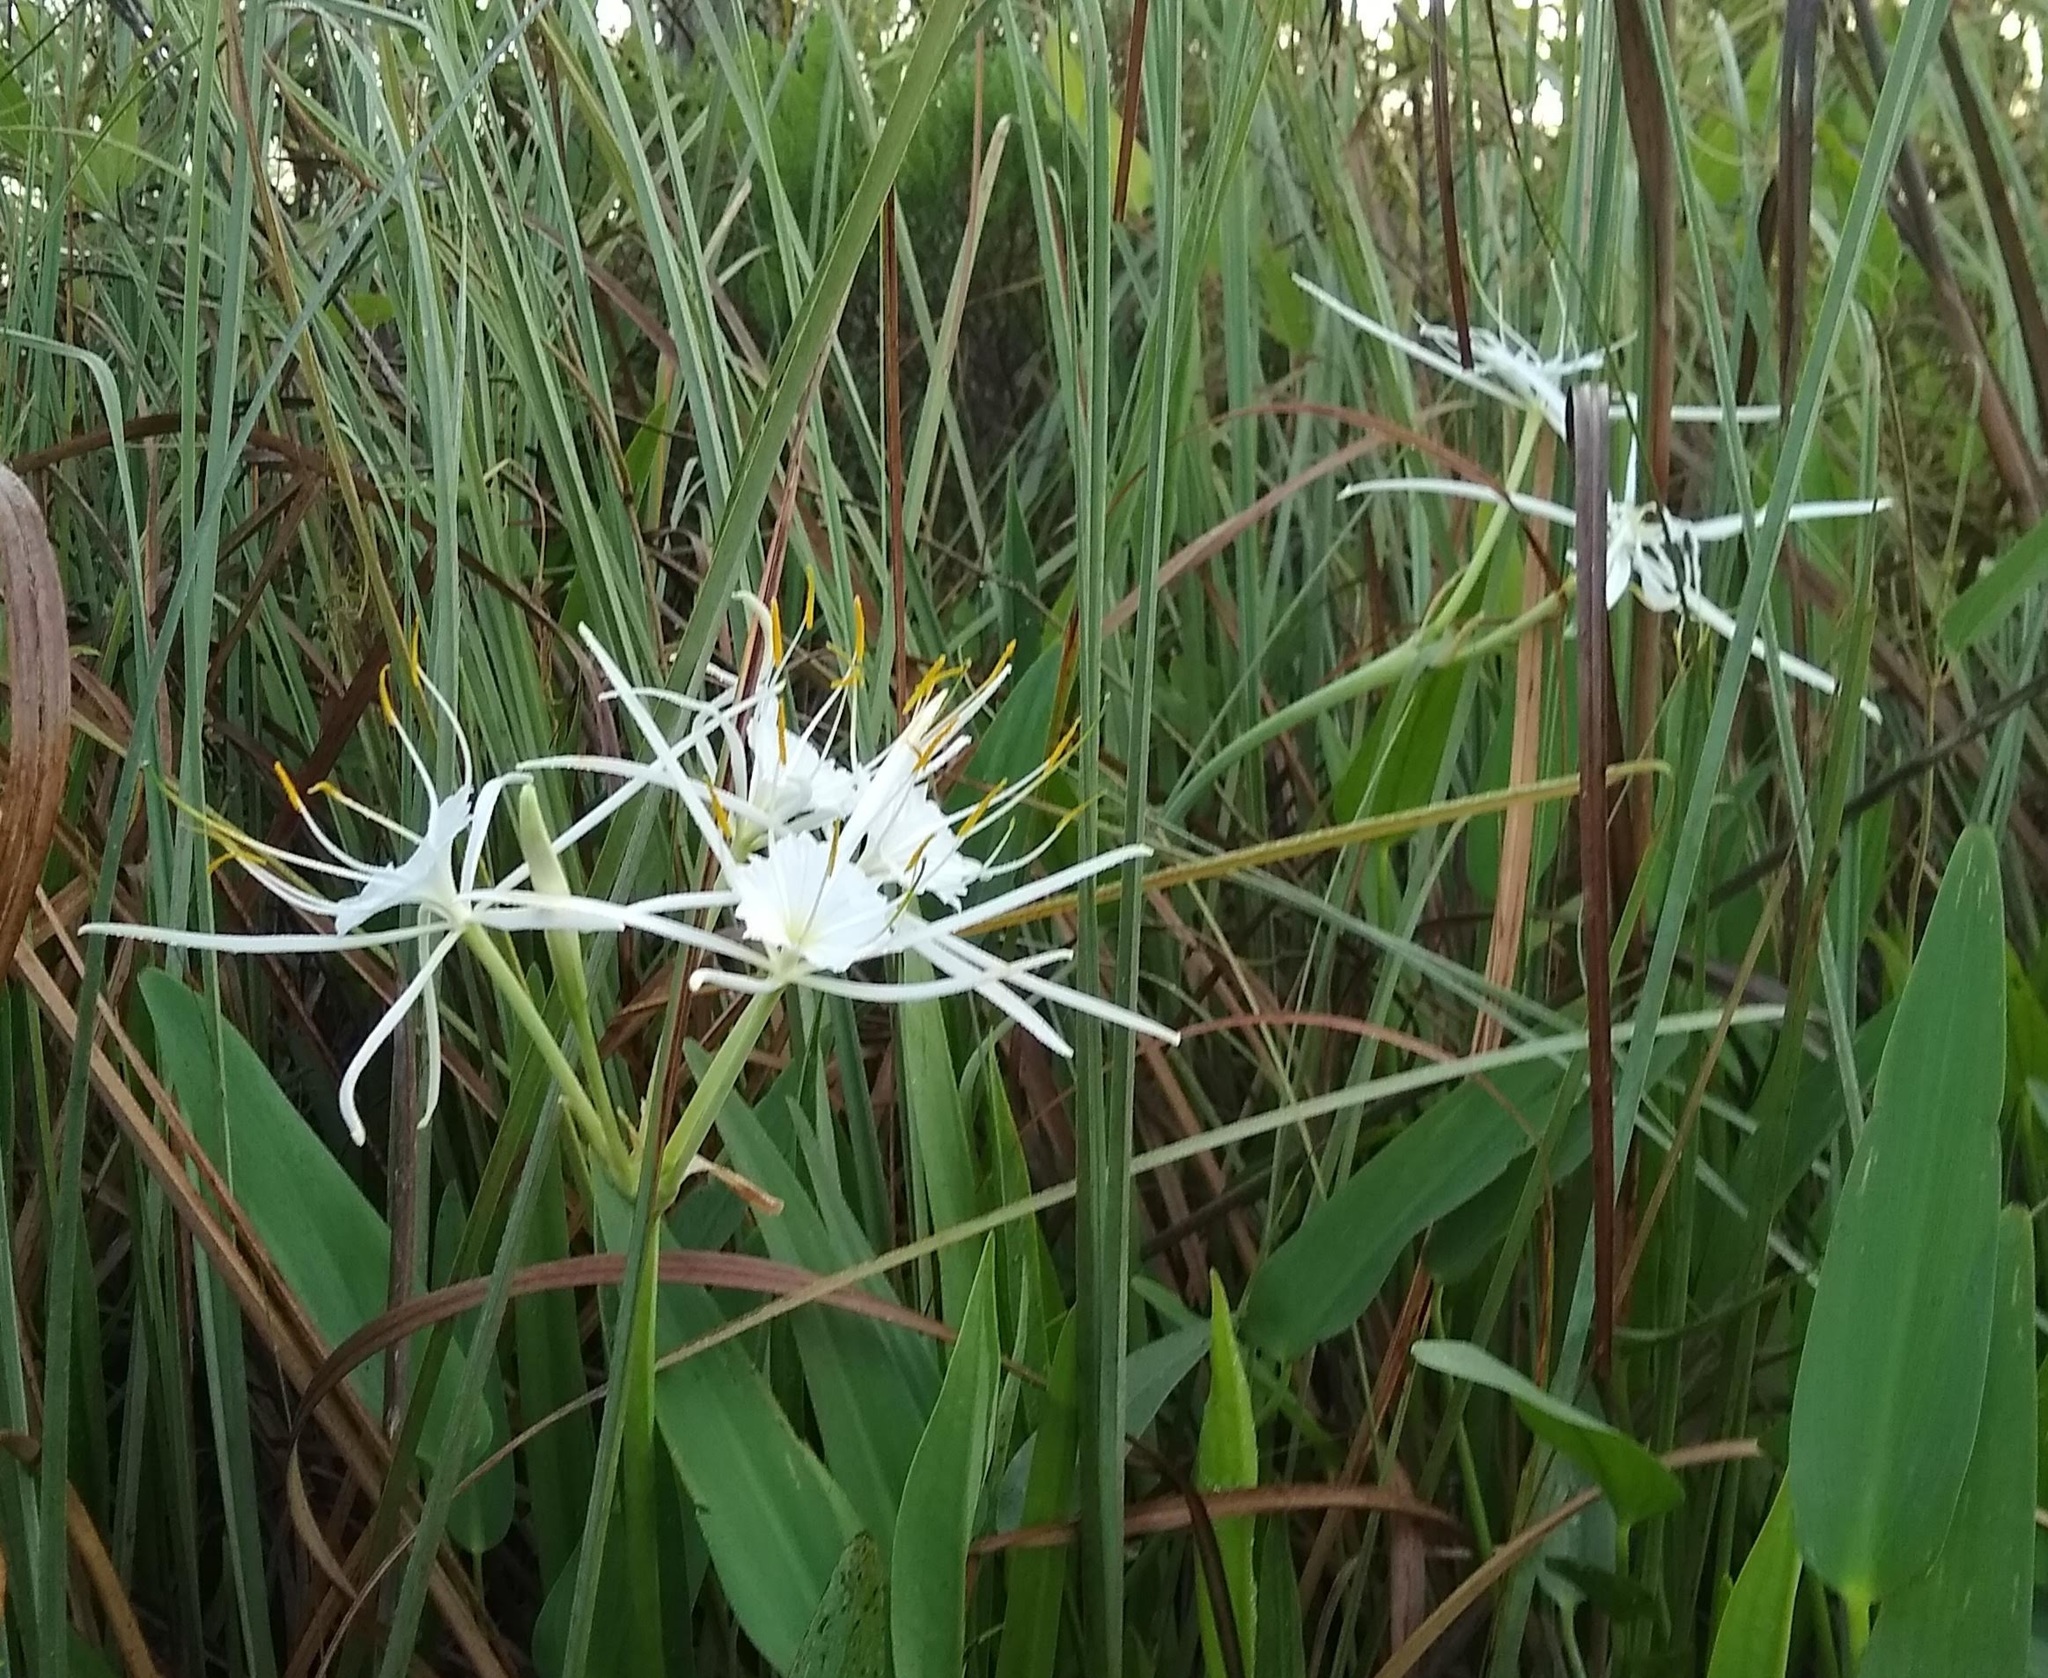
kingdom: Plantae
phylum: Tracheophyta
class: Liliopsida
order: Asparagales
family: Amaryllidaceae
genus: Hymenocallis
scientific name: Hymenocallis choctawensis
